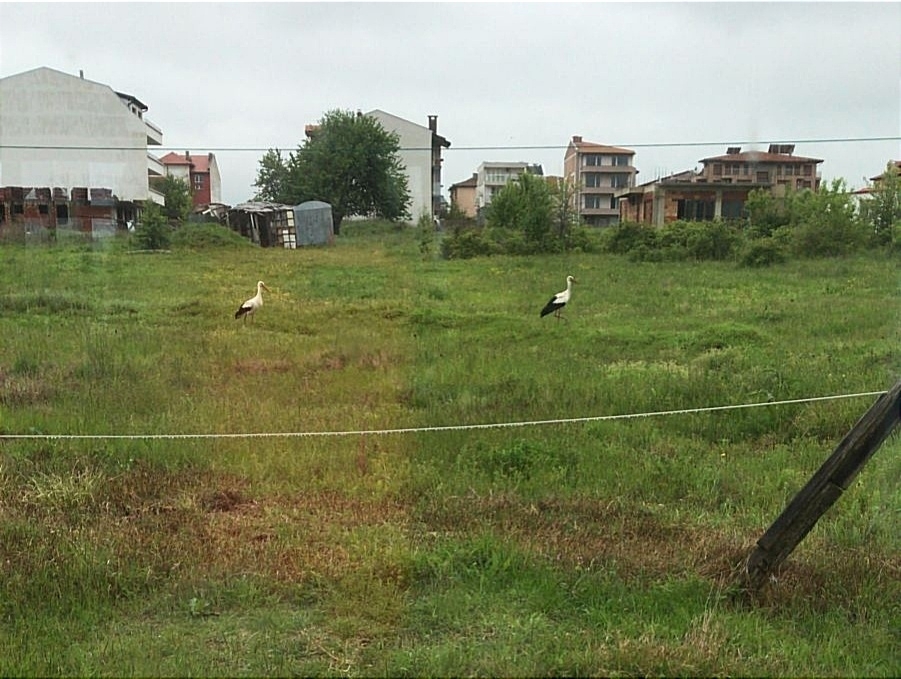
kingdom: Animalia
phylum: Chordata
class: Aves
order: Ciconiiformes
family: Ciconiidae
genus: Ciconia
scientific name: Ciconia ciconia
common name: White stork
